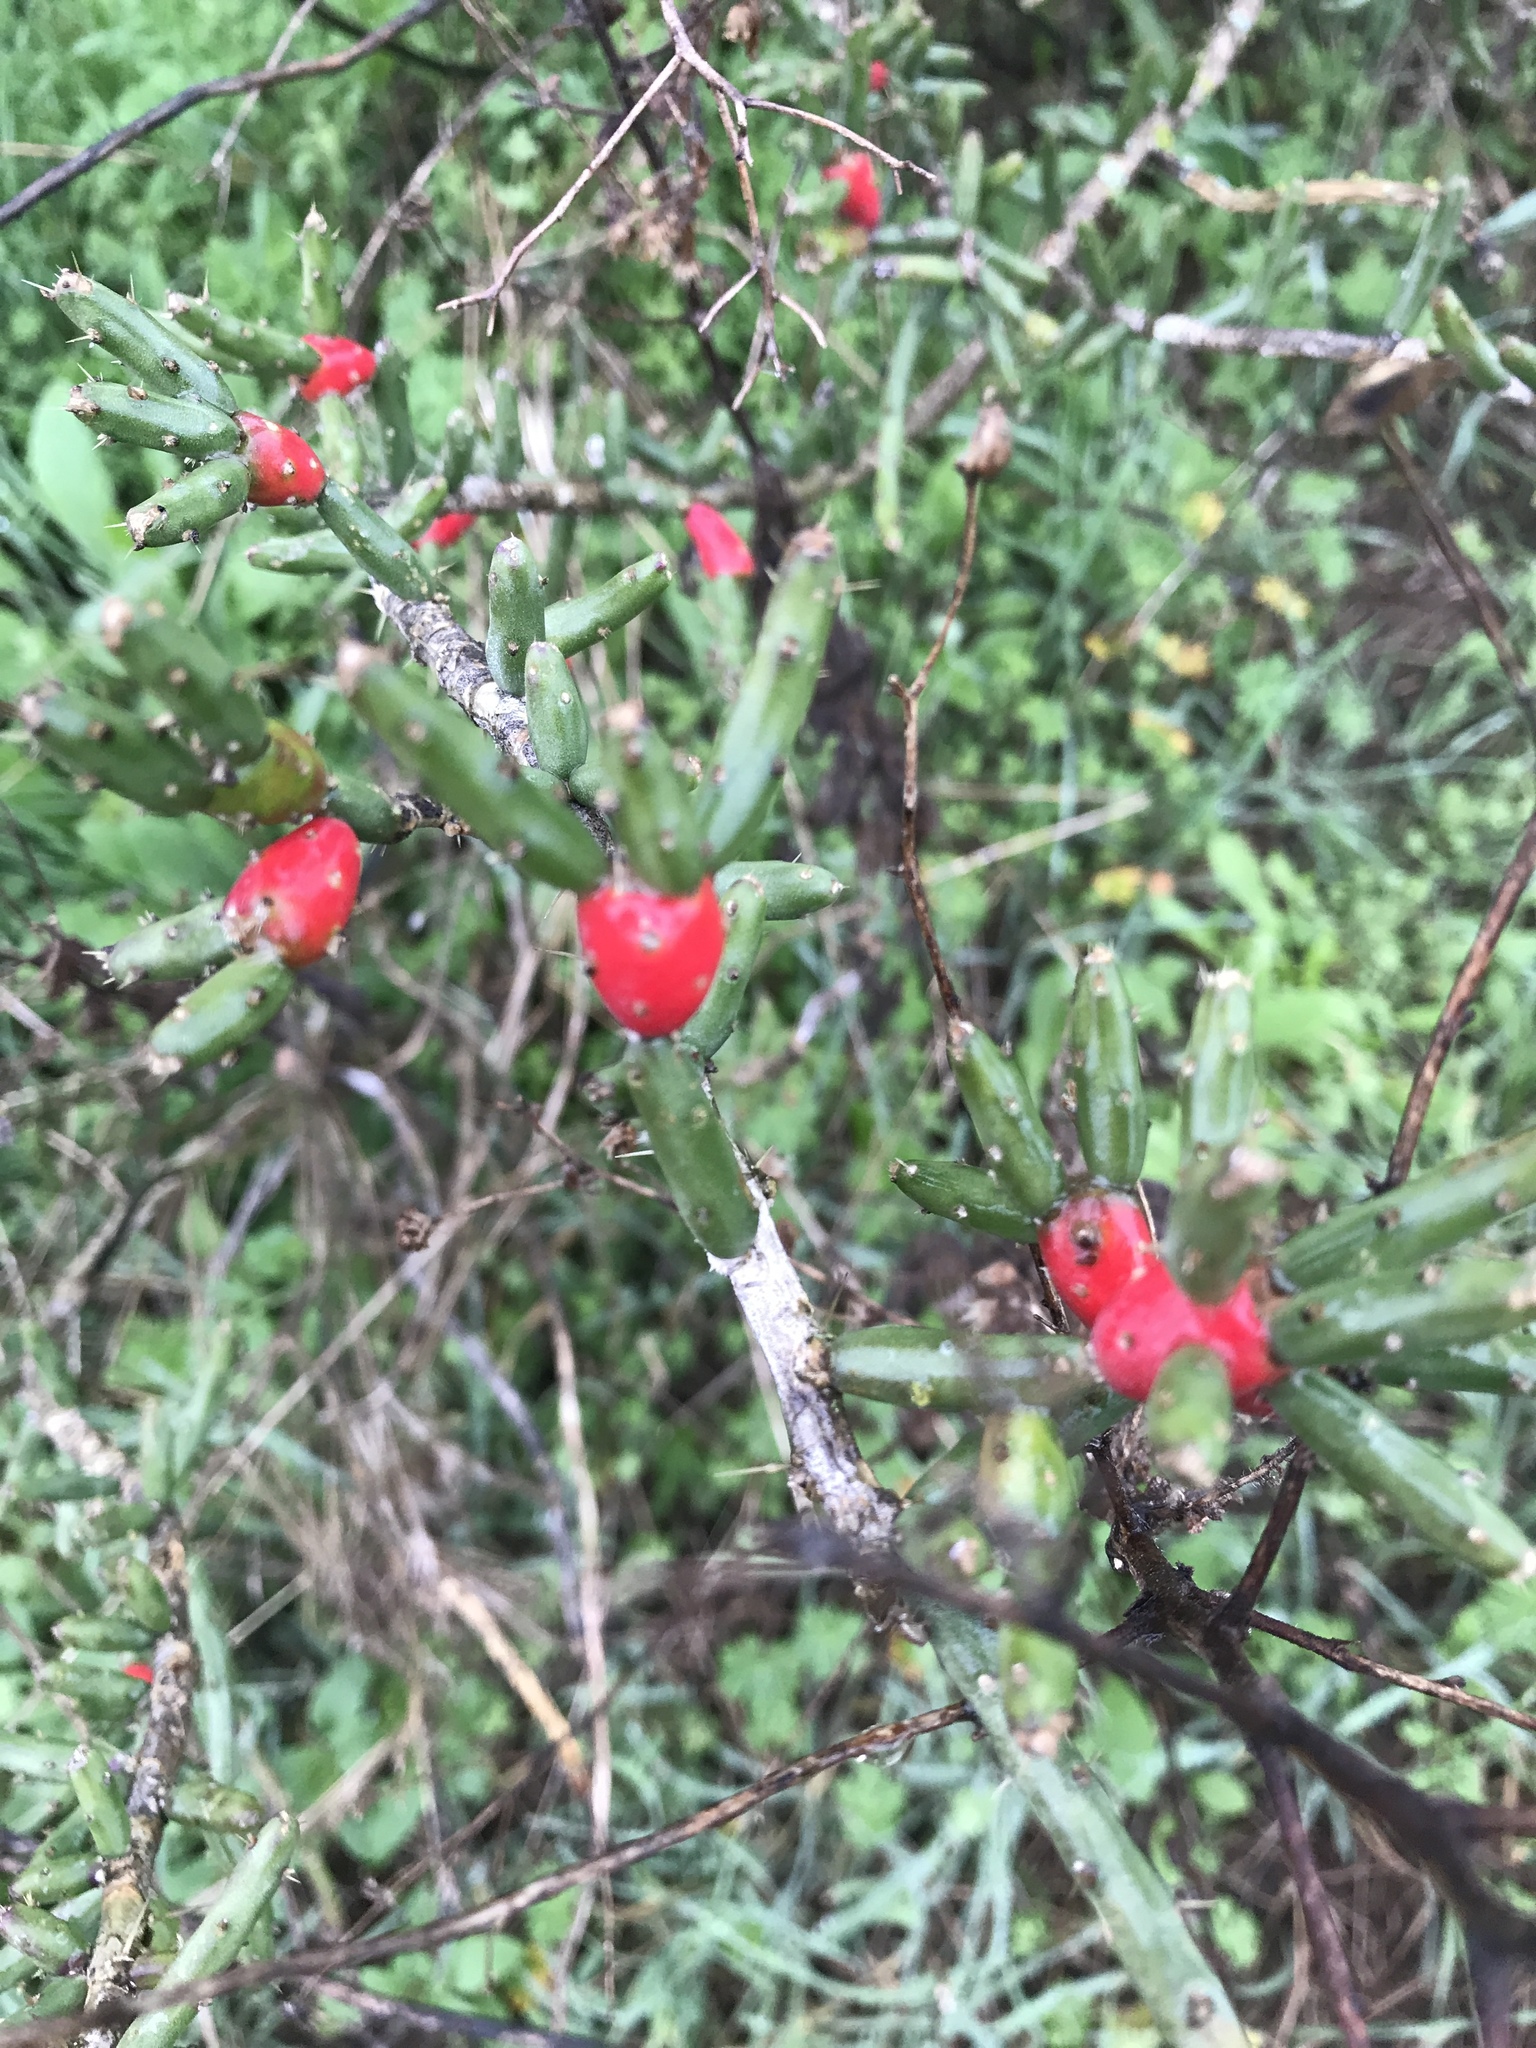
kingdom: Plantae
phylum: Tracheophyta
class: Magnoliopsida
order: Caryophyllales
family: Cactaceae
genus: Cylindropuntia
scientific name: Cylindropuntia leptocaulis
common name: Christmas cactus
